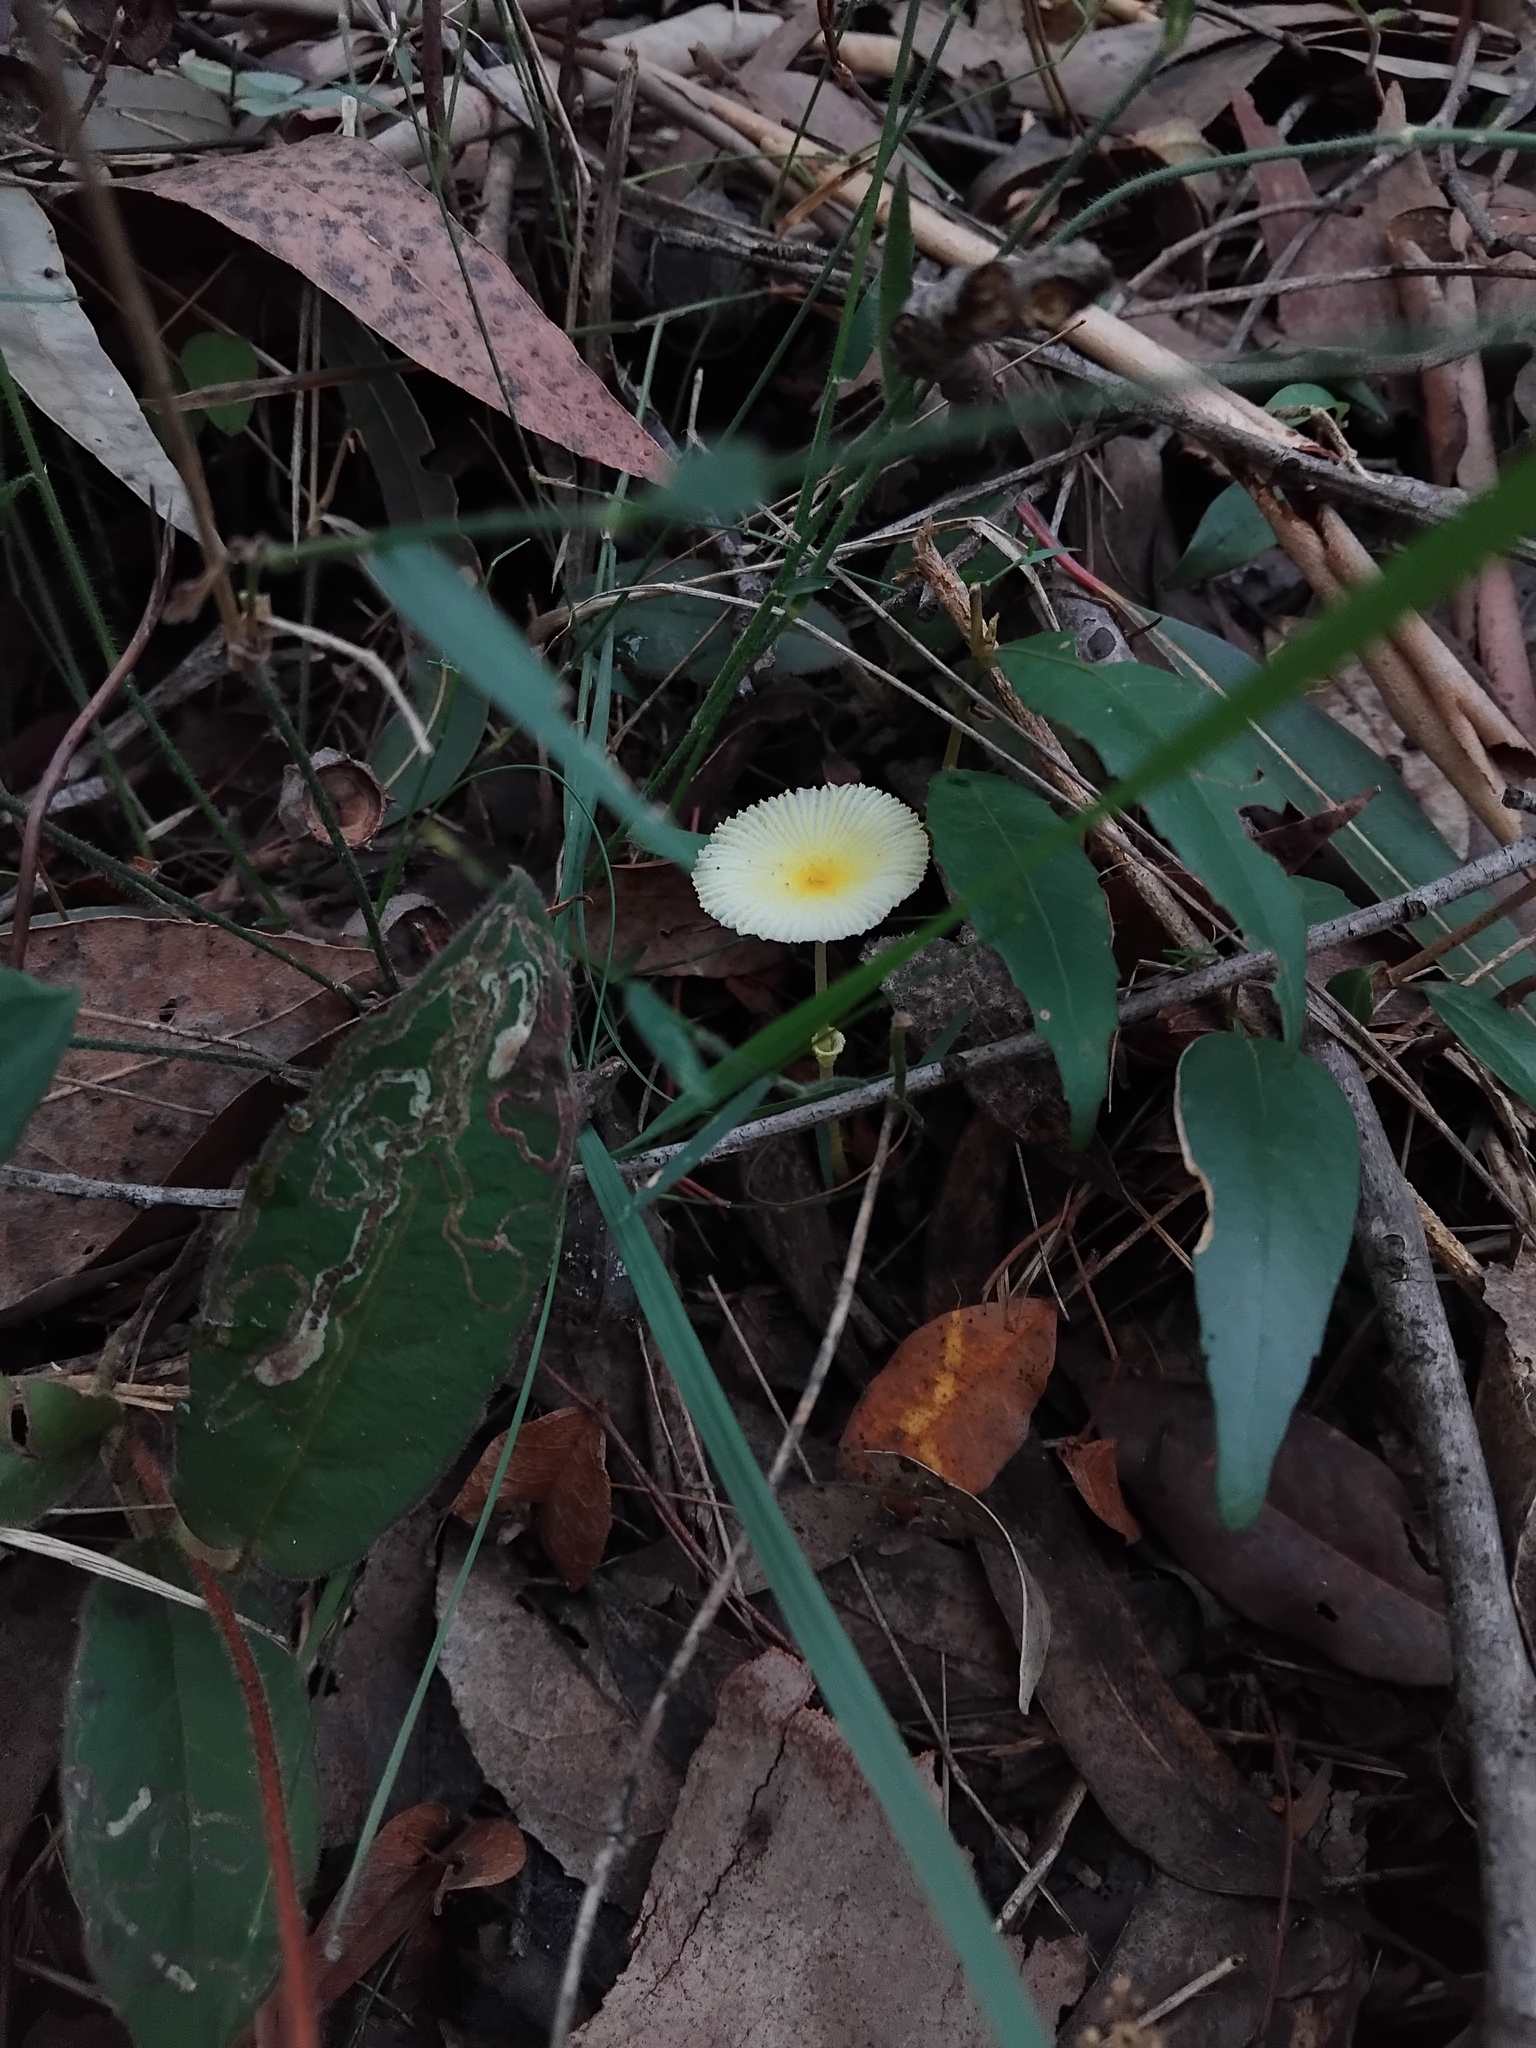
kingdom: Fungi
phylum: Basidiomycota
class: Agaricomycetes
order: Agaricales
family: Agaricaceae
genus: Leucocoprinus
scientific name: Leucocoprinus fragilissimus
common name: Fragile dapperling
